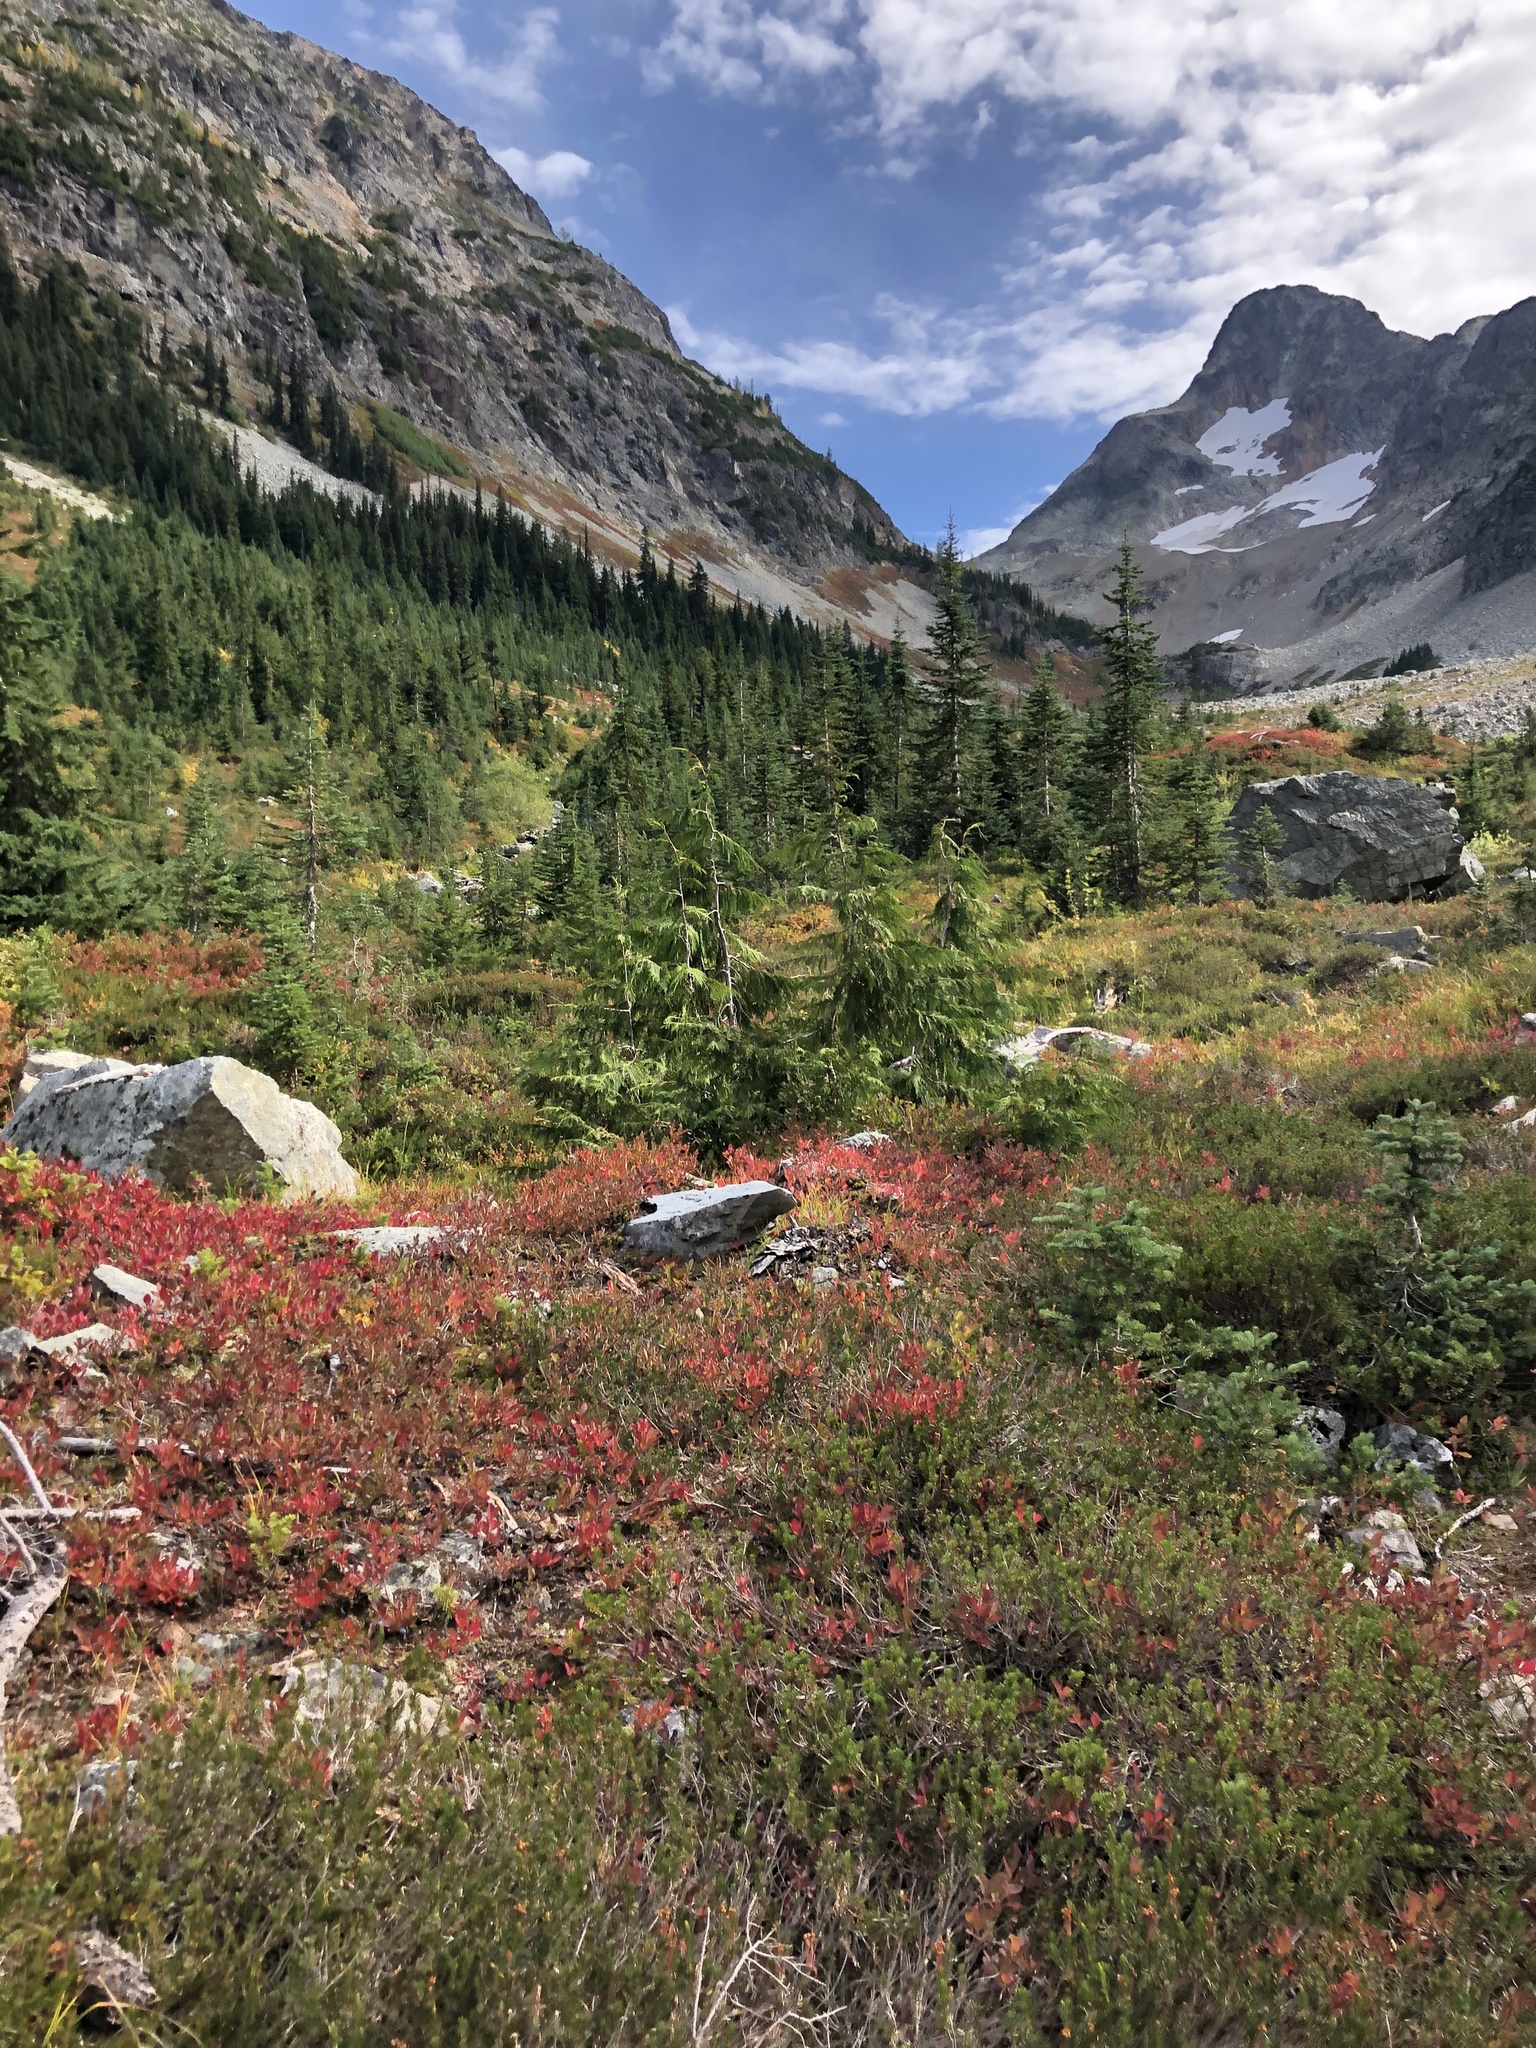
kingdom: Plantae
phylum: Tracheophyta
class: Pinopsida
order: Pinales
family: Cupressaceae
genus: Xanthocyparis
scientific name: Xanthocyparis nootkatensis
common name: Nootka cypress
